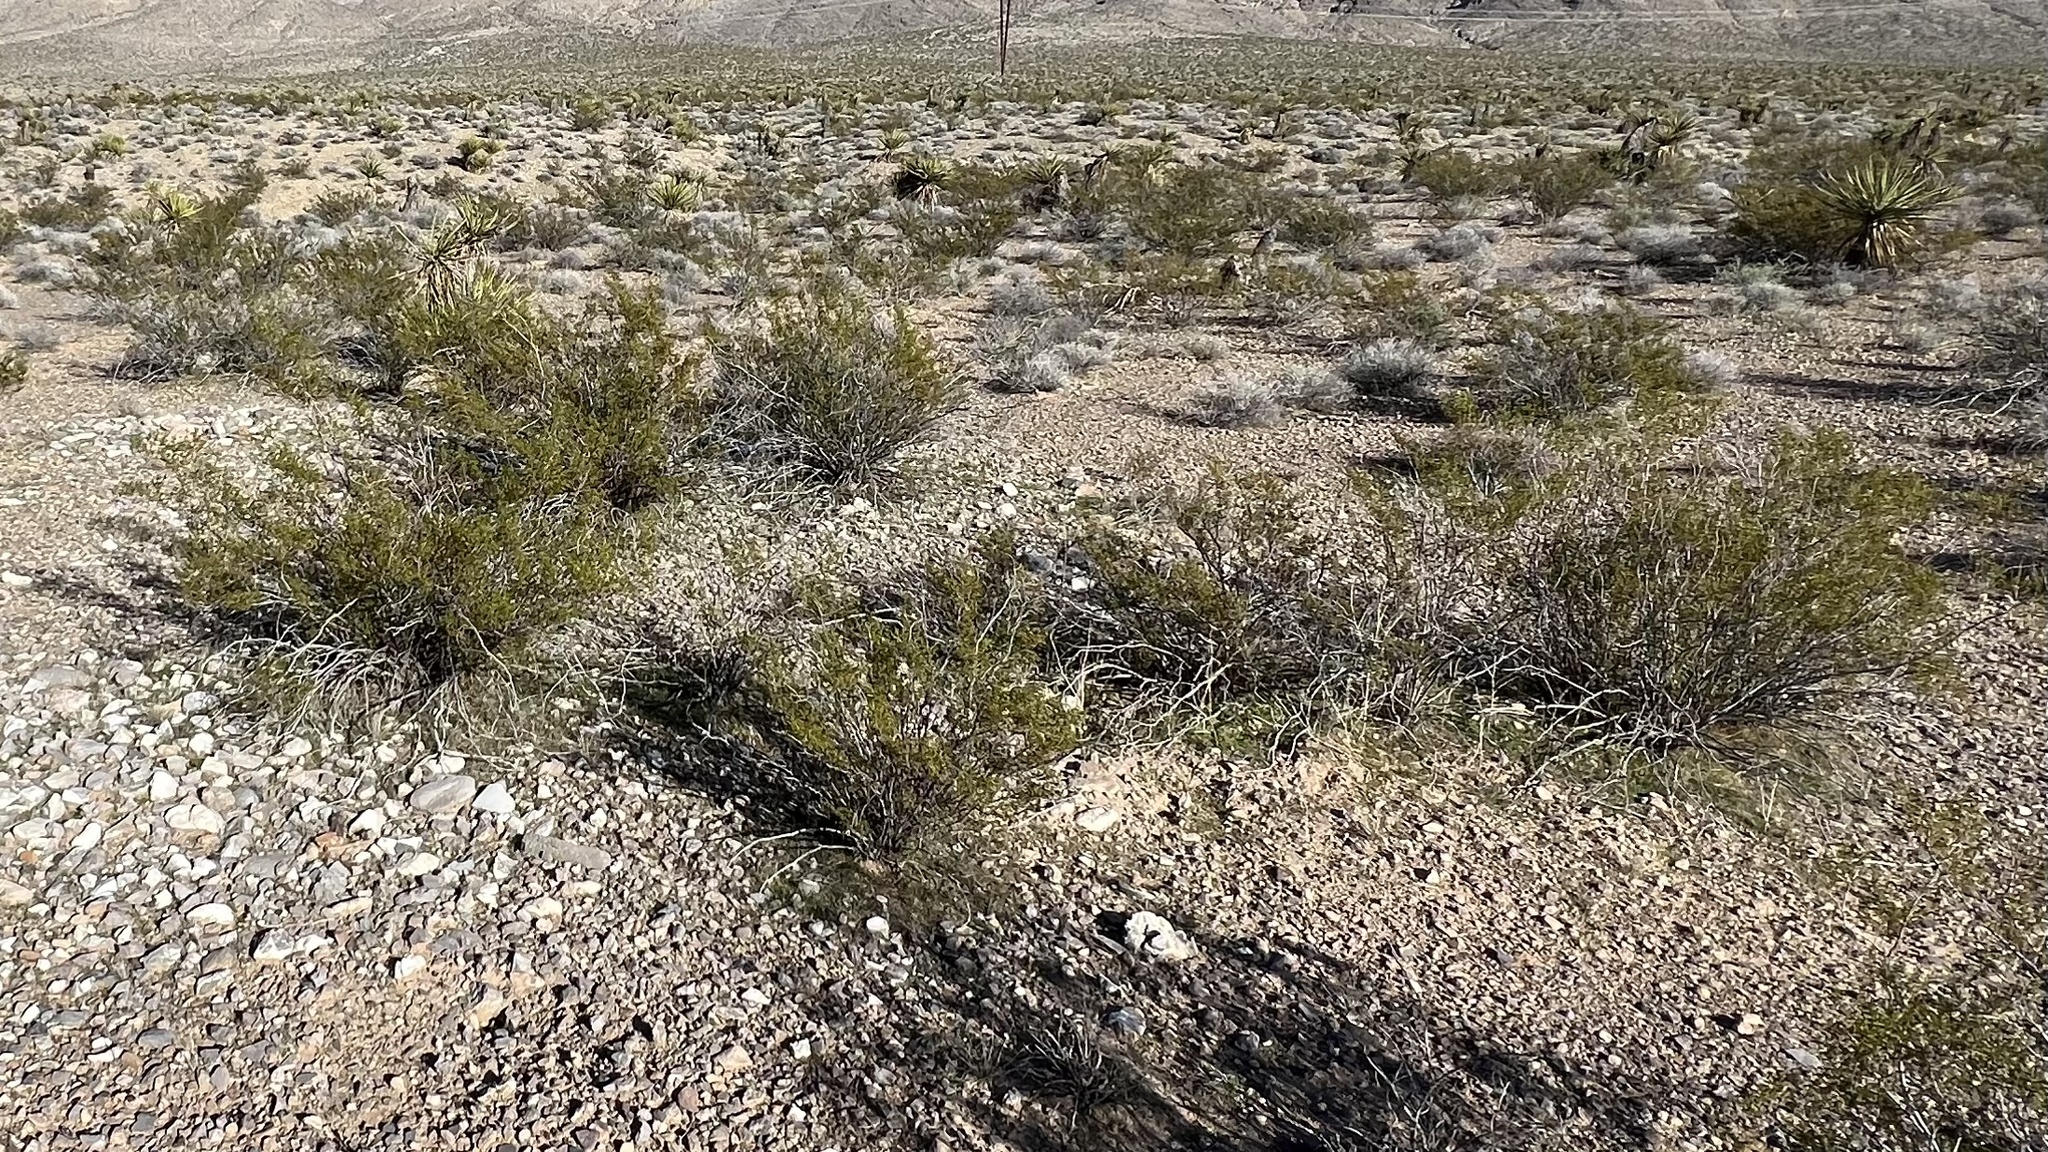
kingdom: Plantae
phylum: Tracheophyta
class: Magnoliopsida
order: Zygophyllales
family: Zygophyllaceae
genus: Larrea
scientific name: Larrea tridentata
